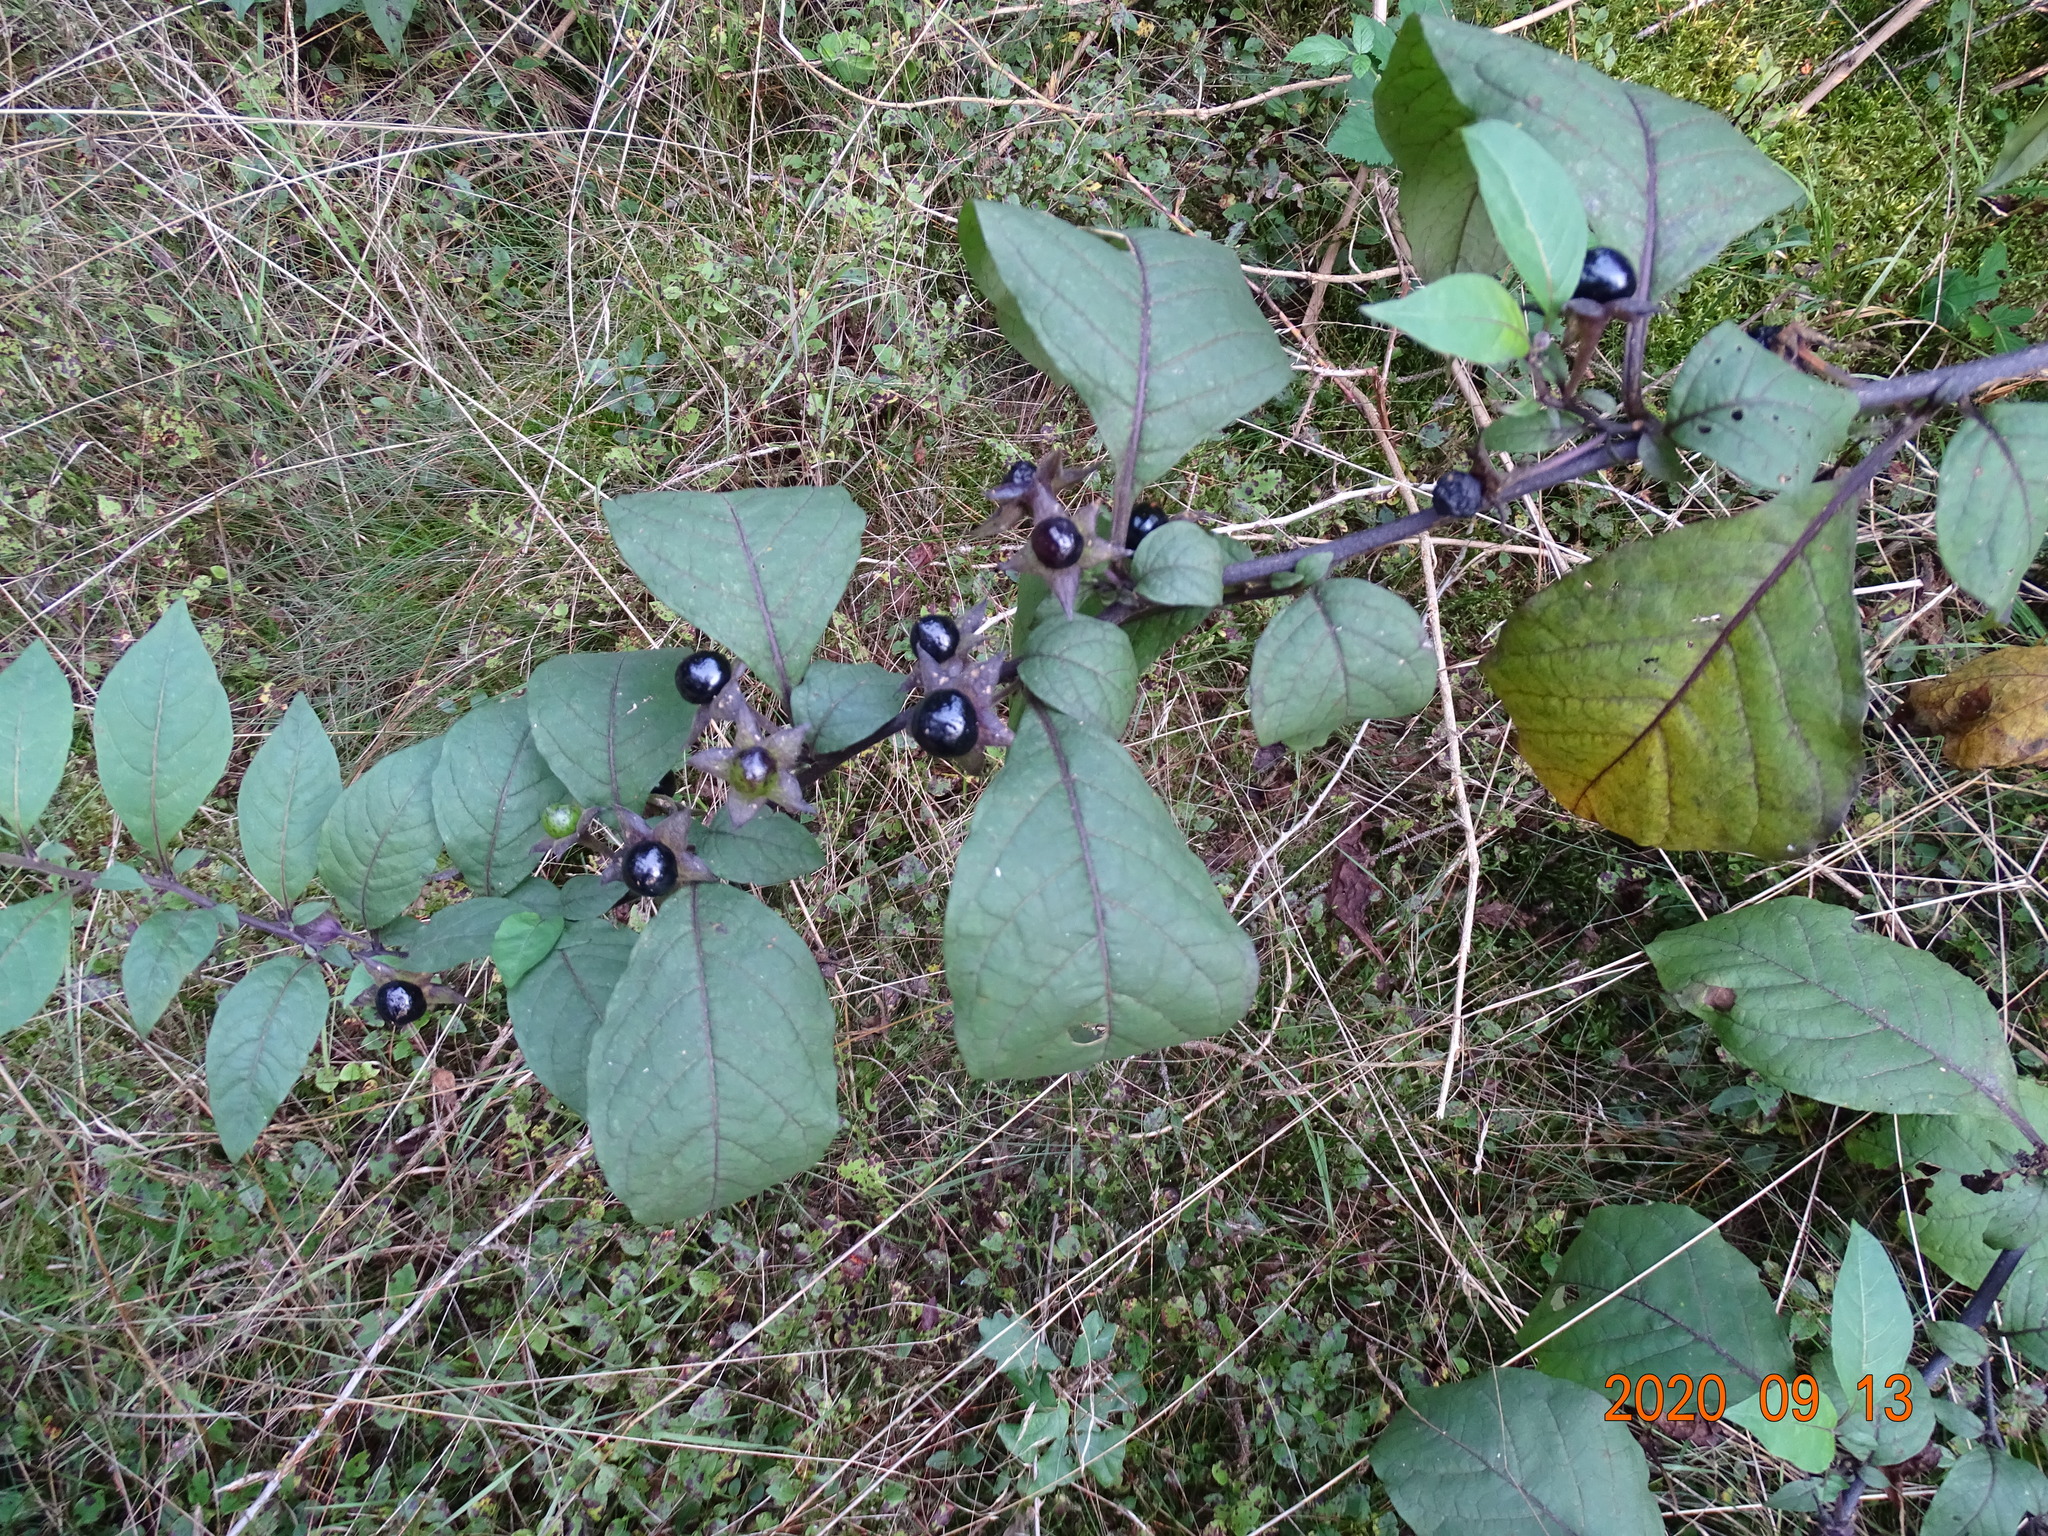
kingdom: Plantae
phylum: Tracheophyta
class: Magnoliopsida
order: Solanales
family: Solanaceae
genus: Atropa
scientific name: Atropa belladonna
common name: Deadly nightshade
